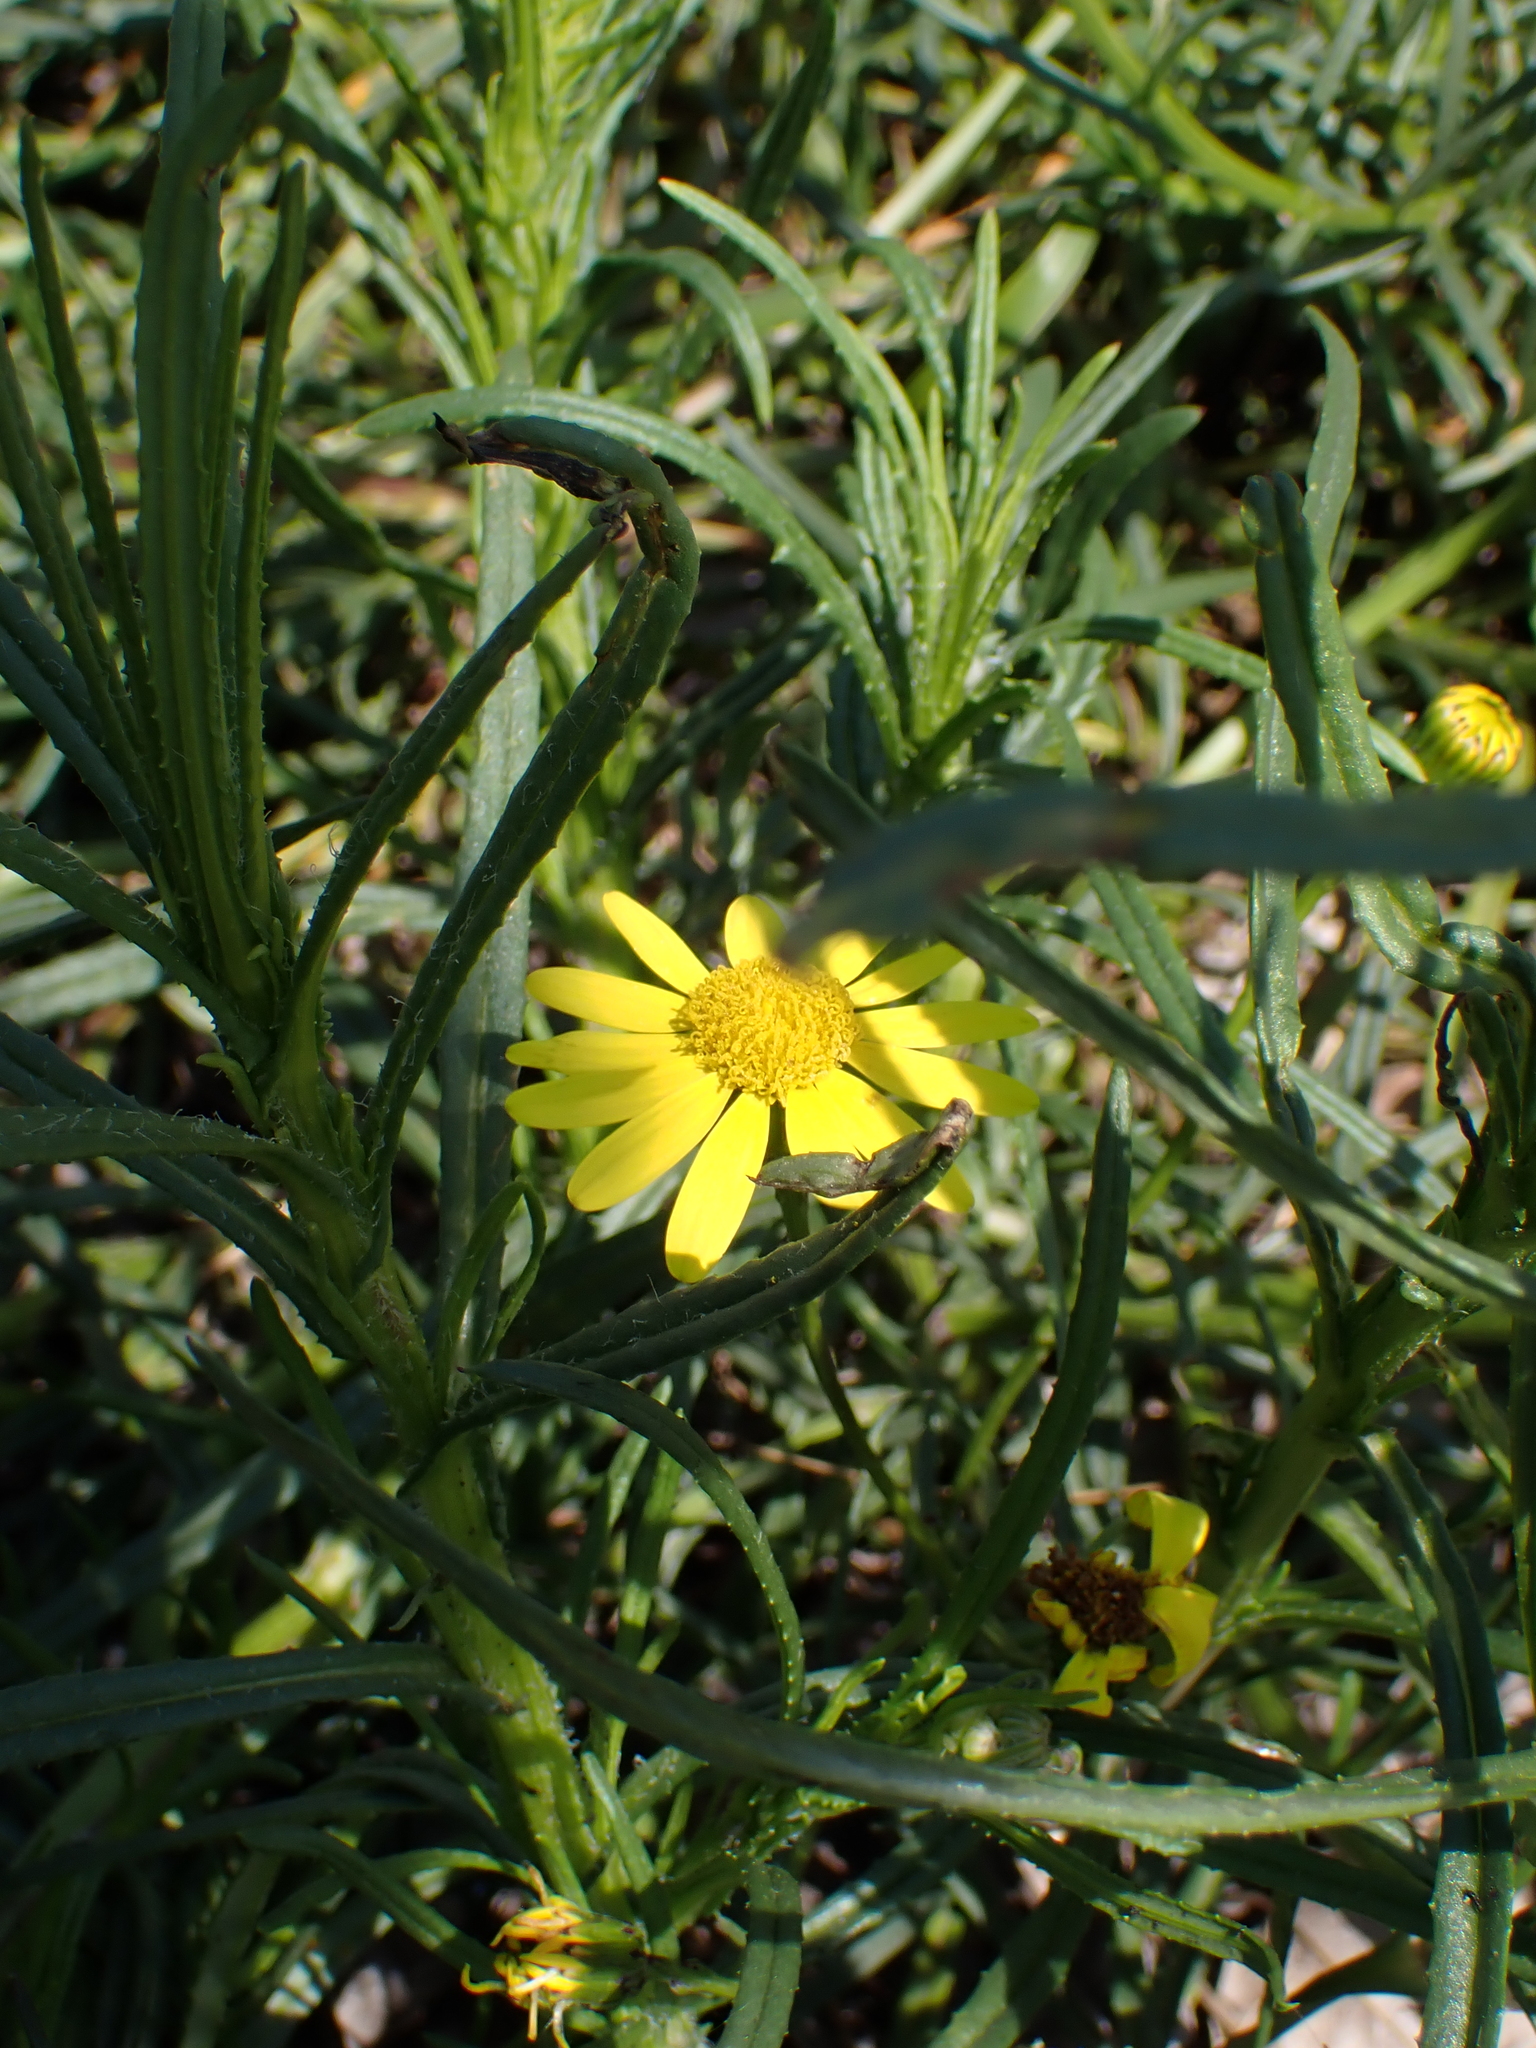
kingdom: Plantae
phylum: Tracheophyta
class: Magnoliopsida
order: Asterales
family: Asteraceae
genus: Senecio
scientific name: Senecio inaequidens
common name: Narrow-leaved ragwort
